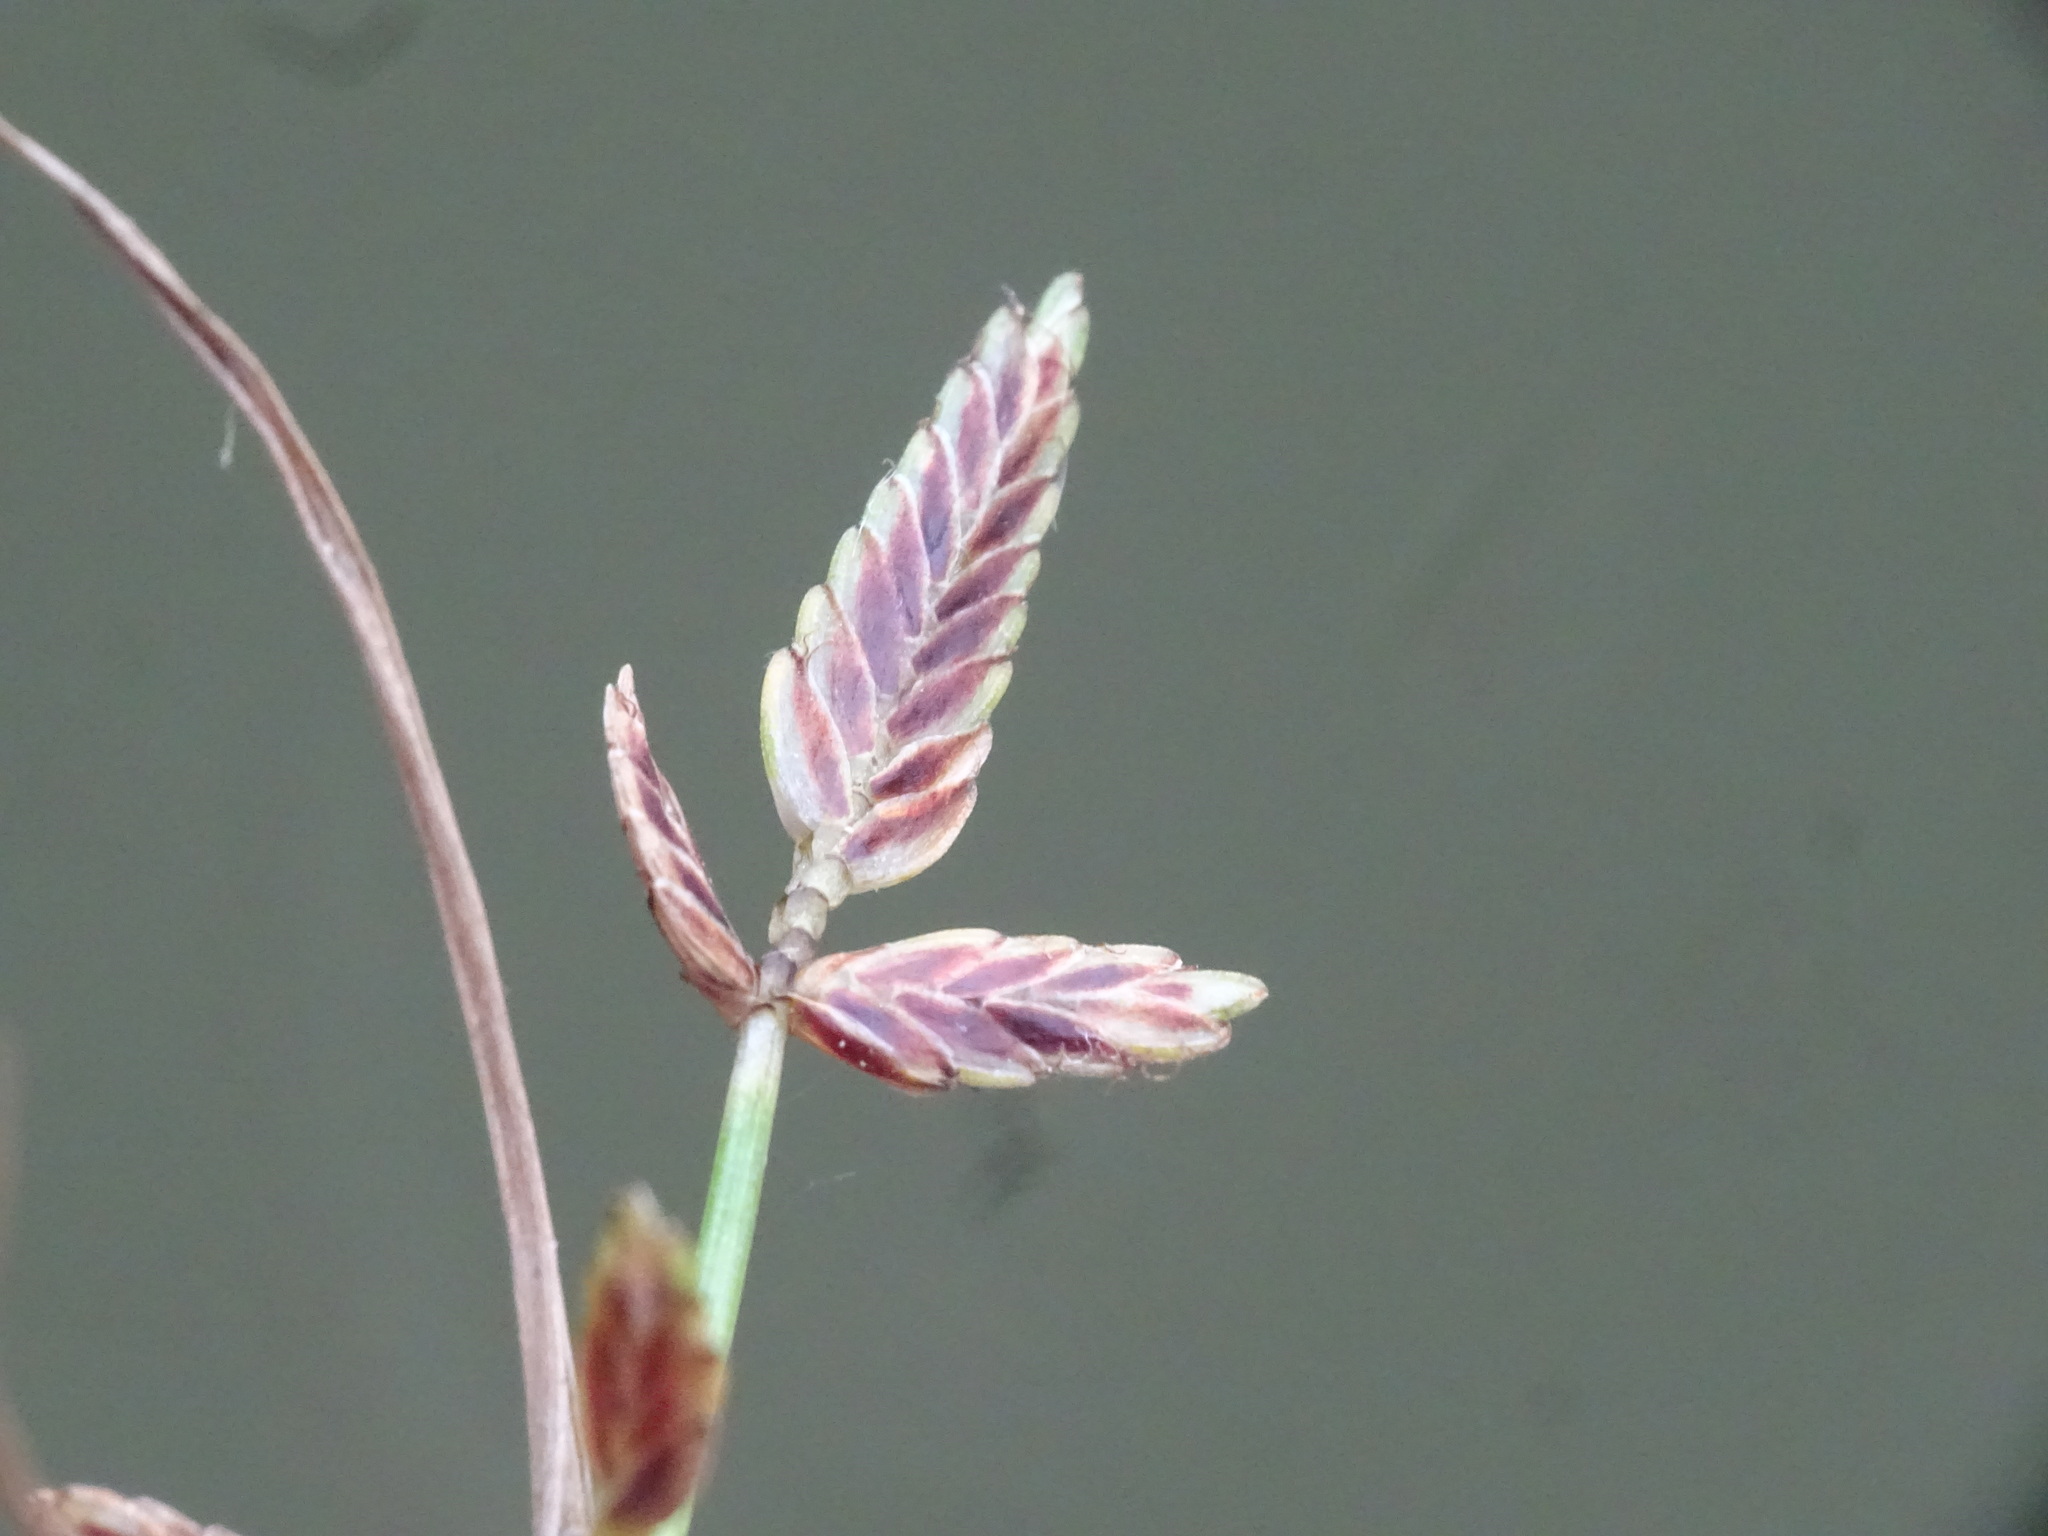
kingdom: Plantae
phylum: Tracheophyta
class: Liliopsida
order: Poales
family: Cyperaceae
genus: Cyperus
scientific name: Cyperus bipartitus
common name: Brook flatsedge
